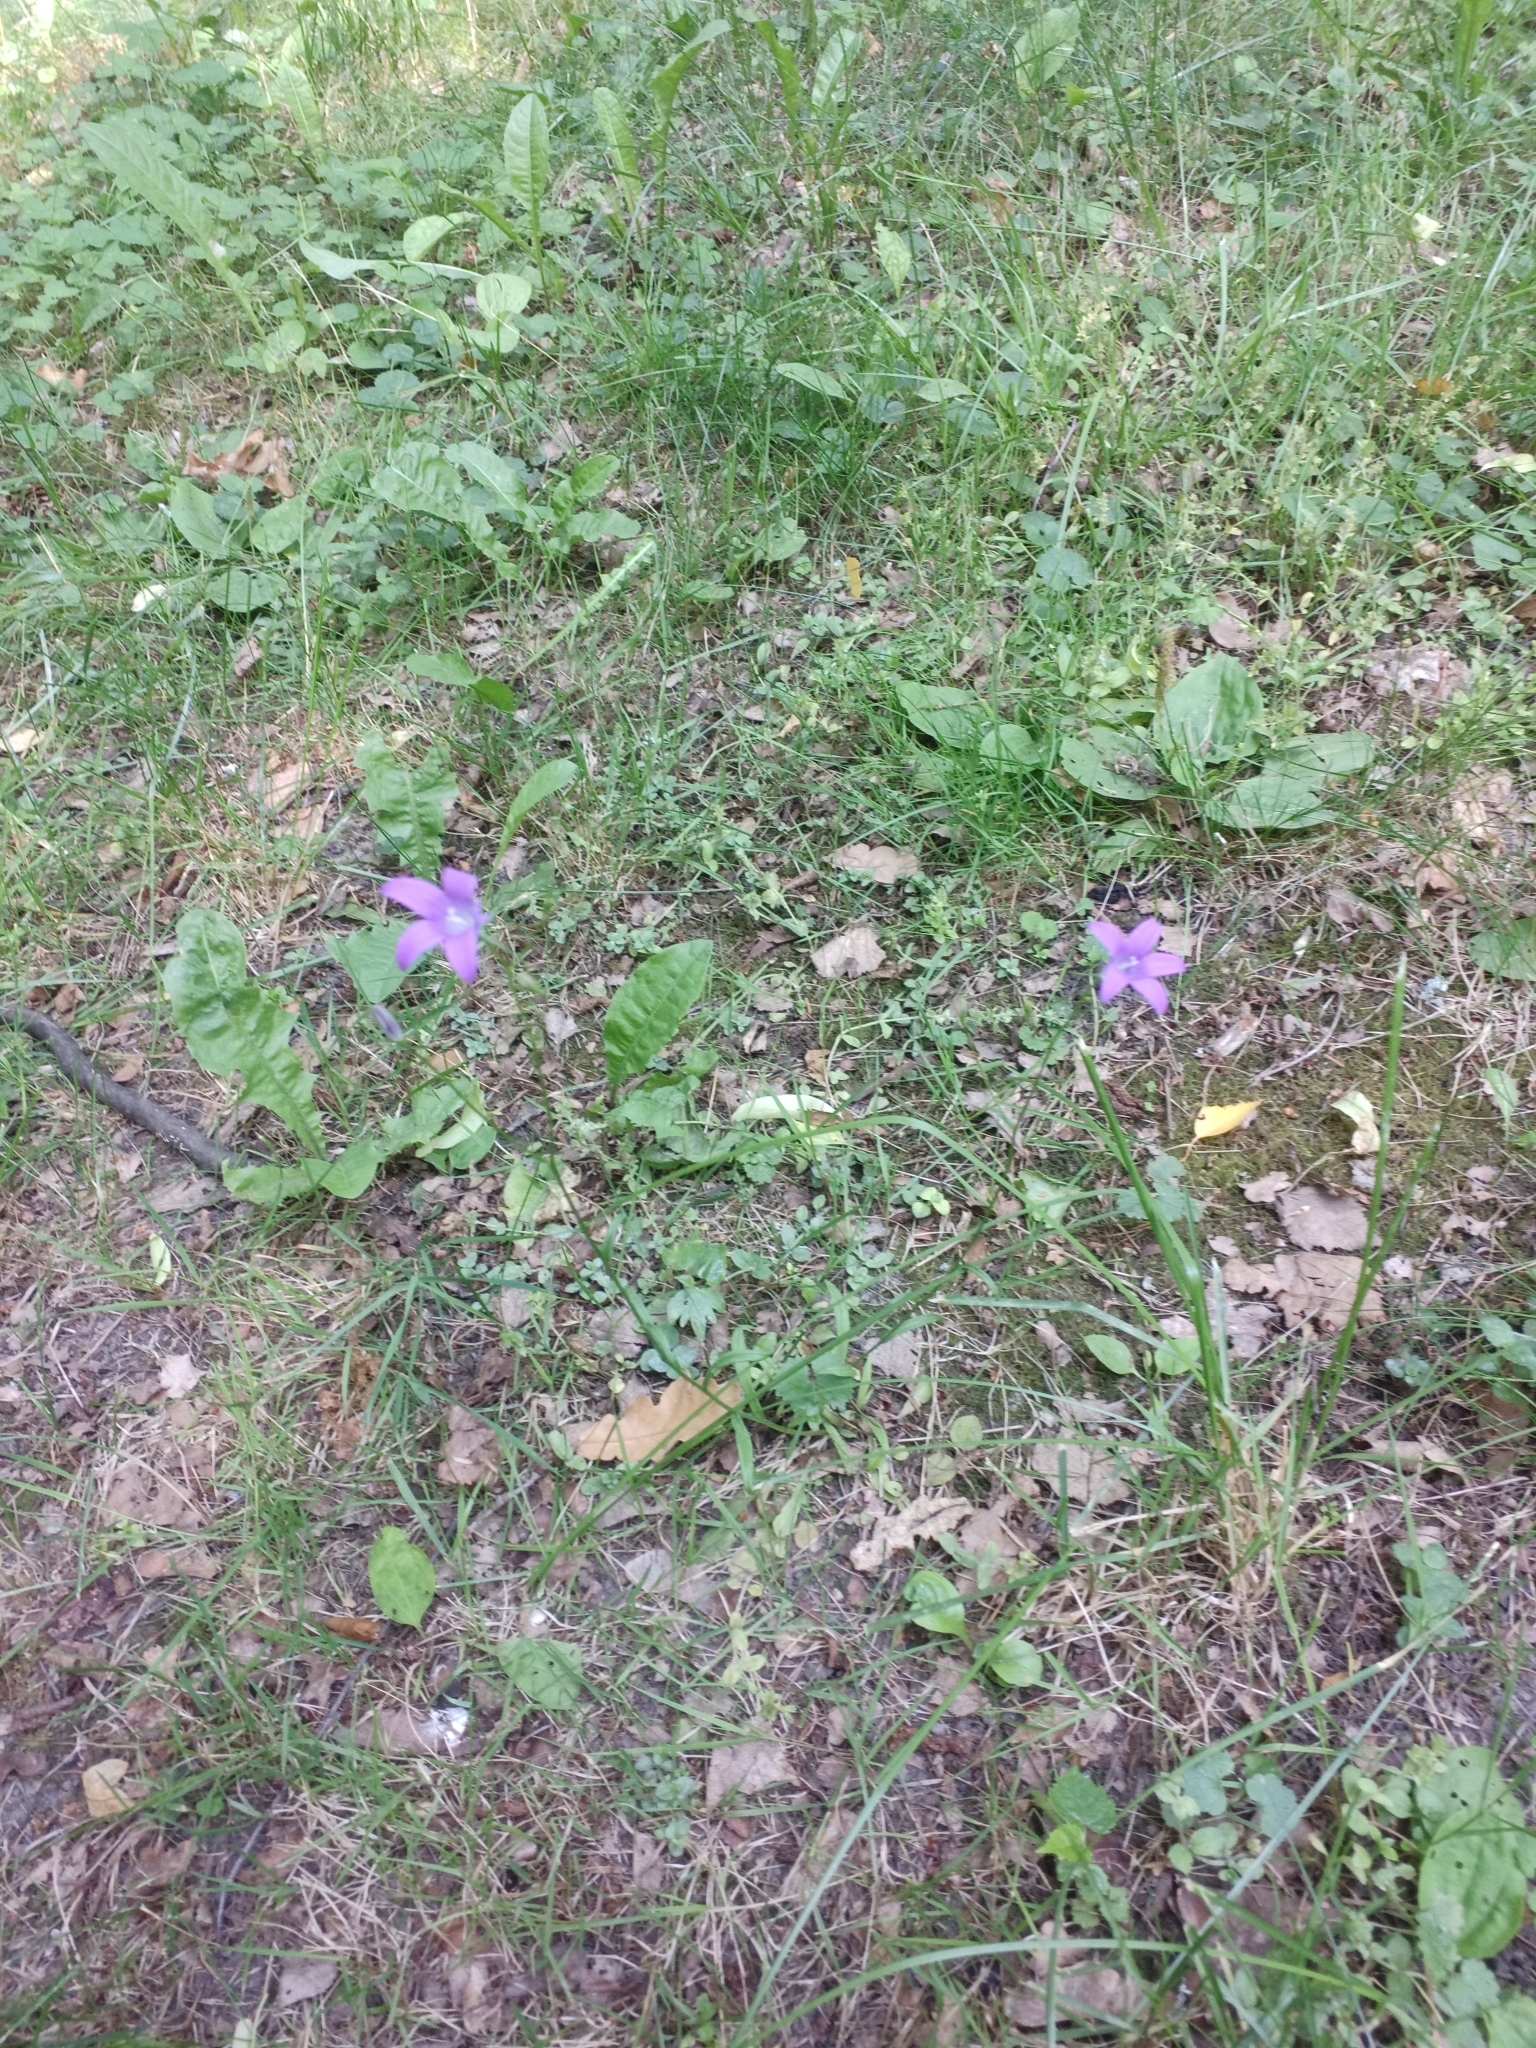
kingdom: Plantae
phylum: Tracheophyta
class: Magnoliopsida
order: Asterales
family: Campanulaceae
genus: Campanula
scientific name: Campanula patula
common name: Spreading bellflower
